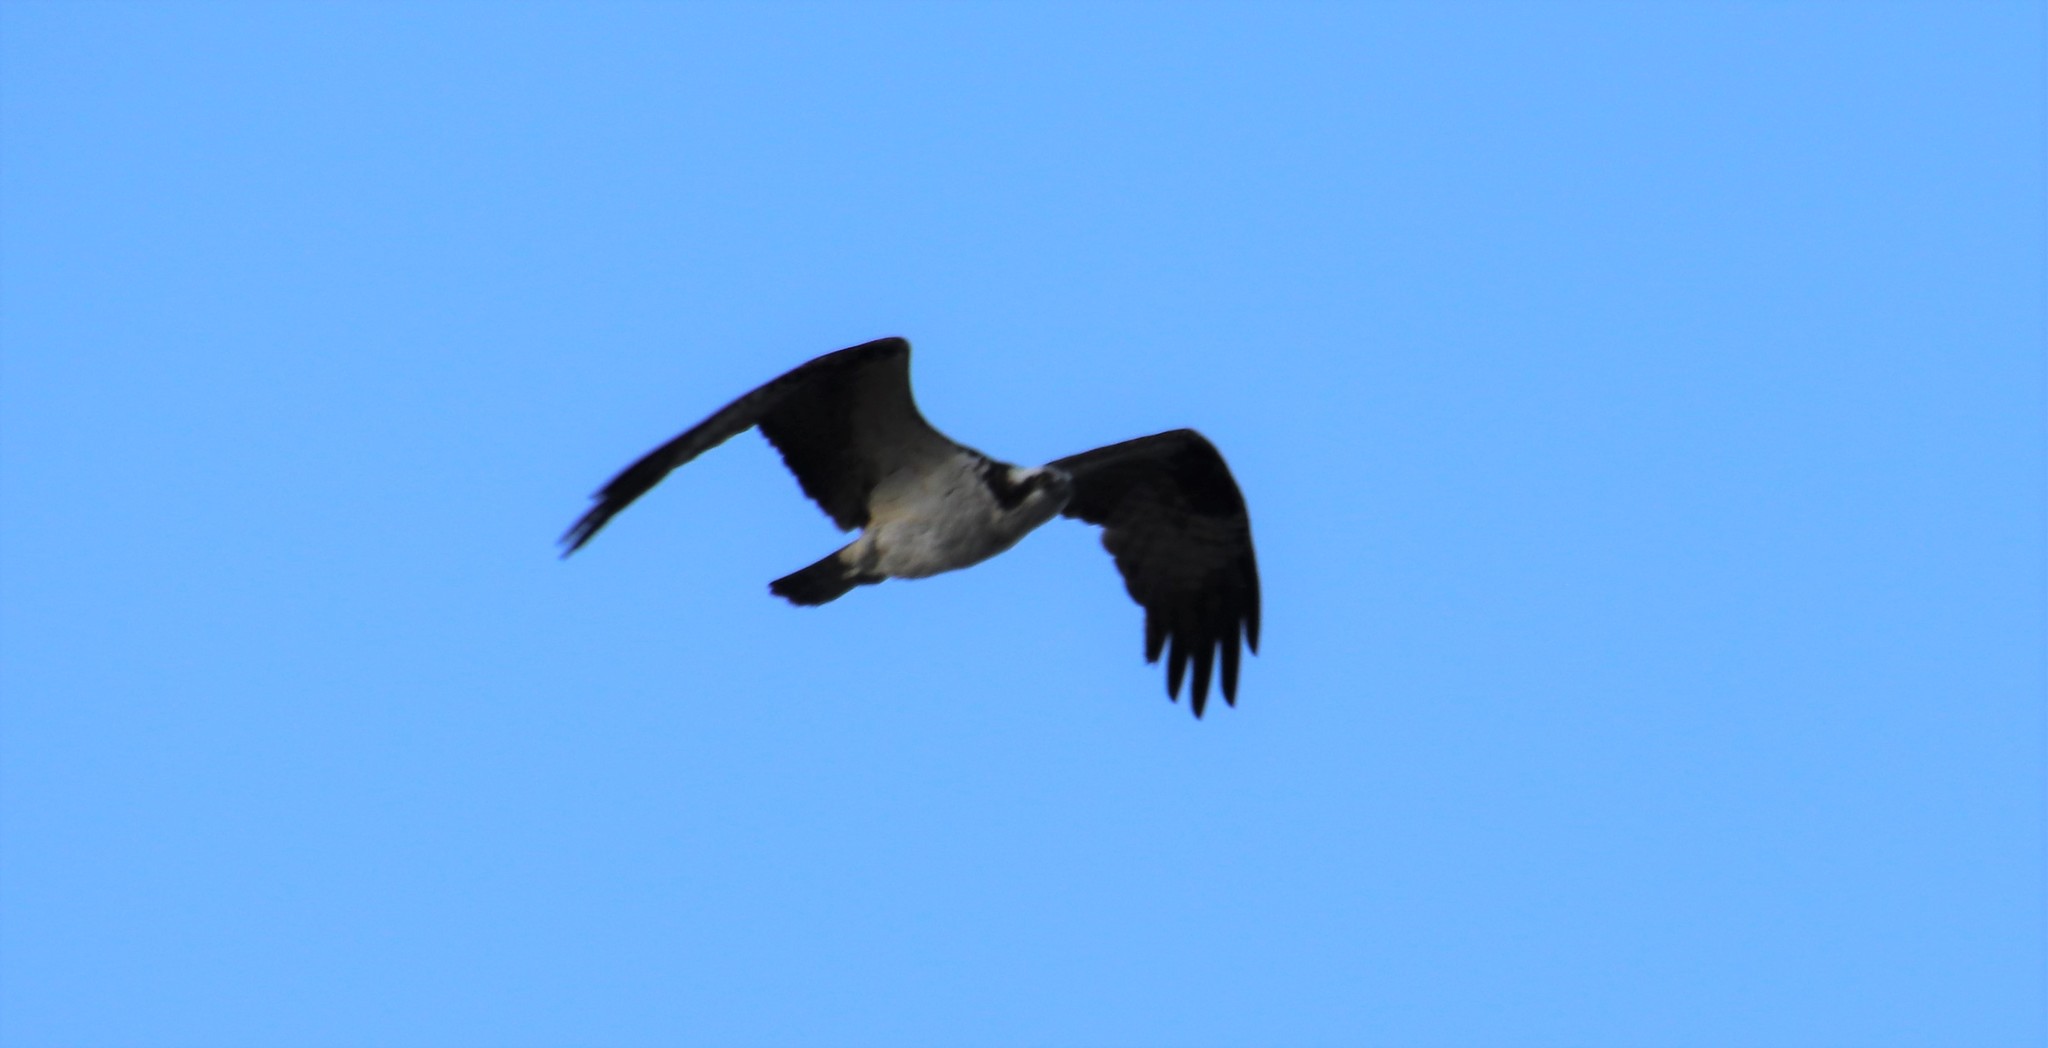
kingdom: Animalia
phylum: Chordata
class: Aves
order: Accipitriformes
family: Pandionidae
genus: Pandion
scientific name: Pandion haliaetus
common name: Osprey
